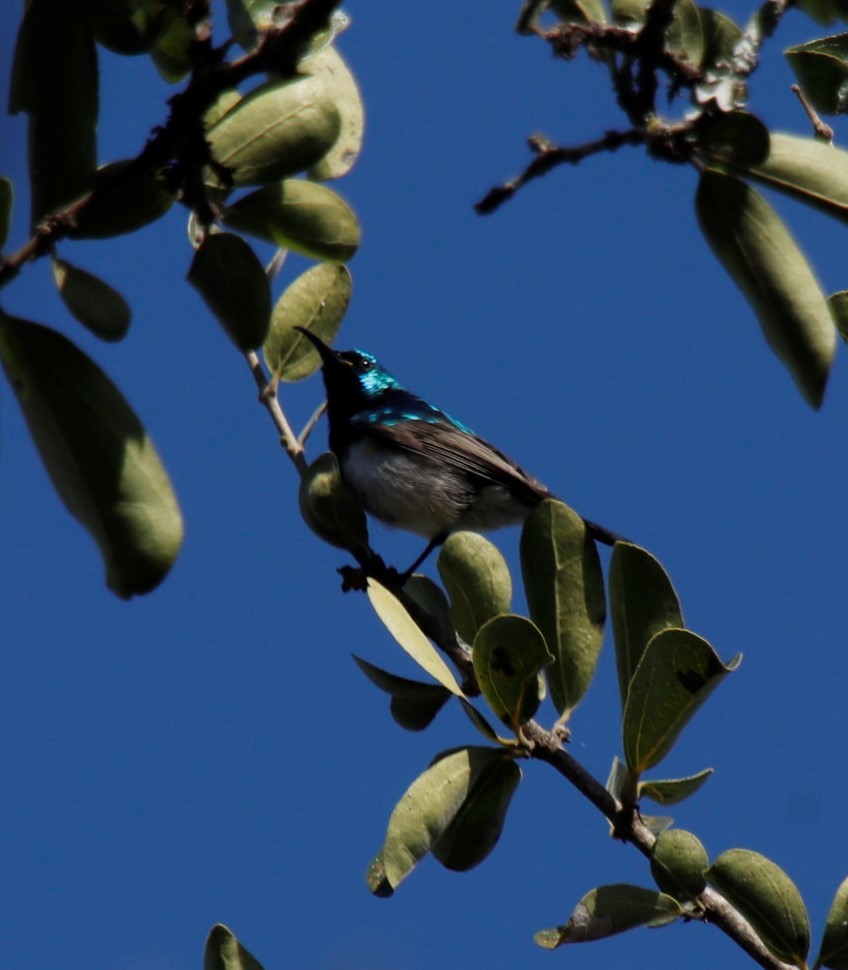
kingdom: Animalia
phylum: Chordata
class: Aves
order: Passeriformes
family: Nectariniidae
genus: Cinnyris
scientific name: Cinnyris talatala
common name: White-bellied sunbird
